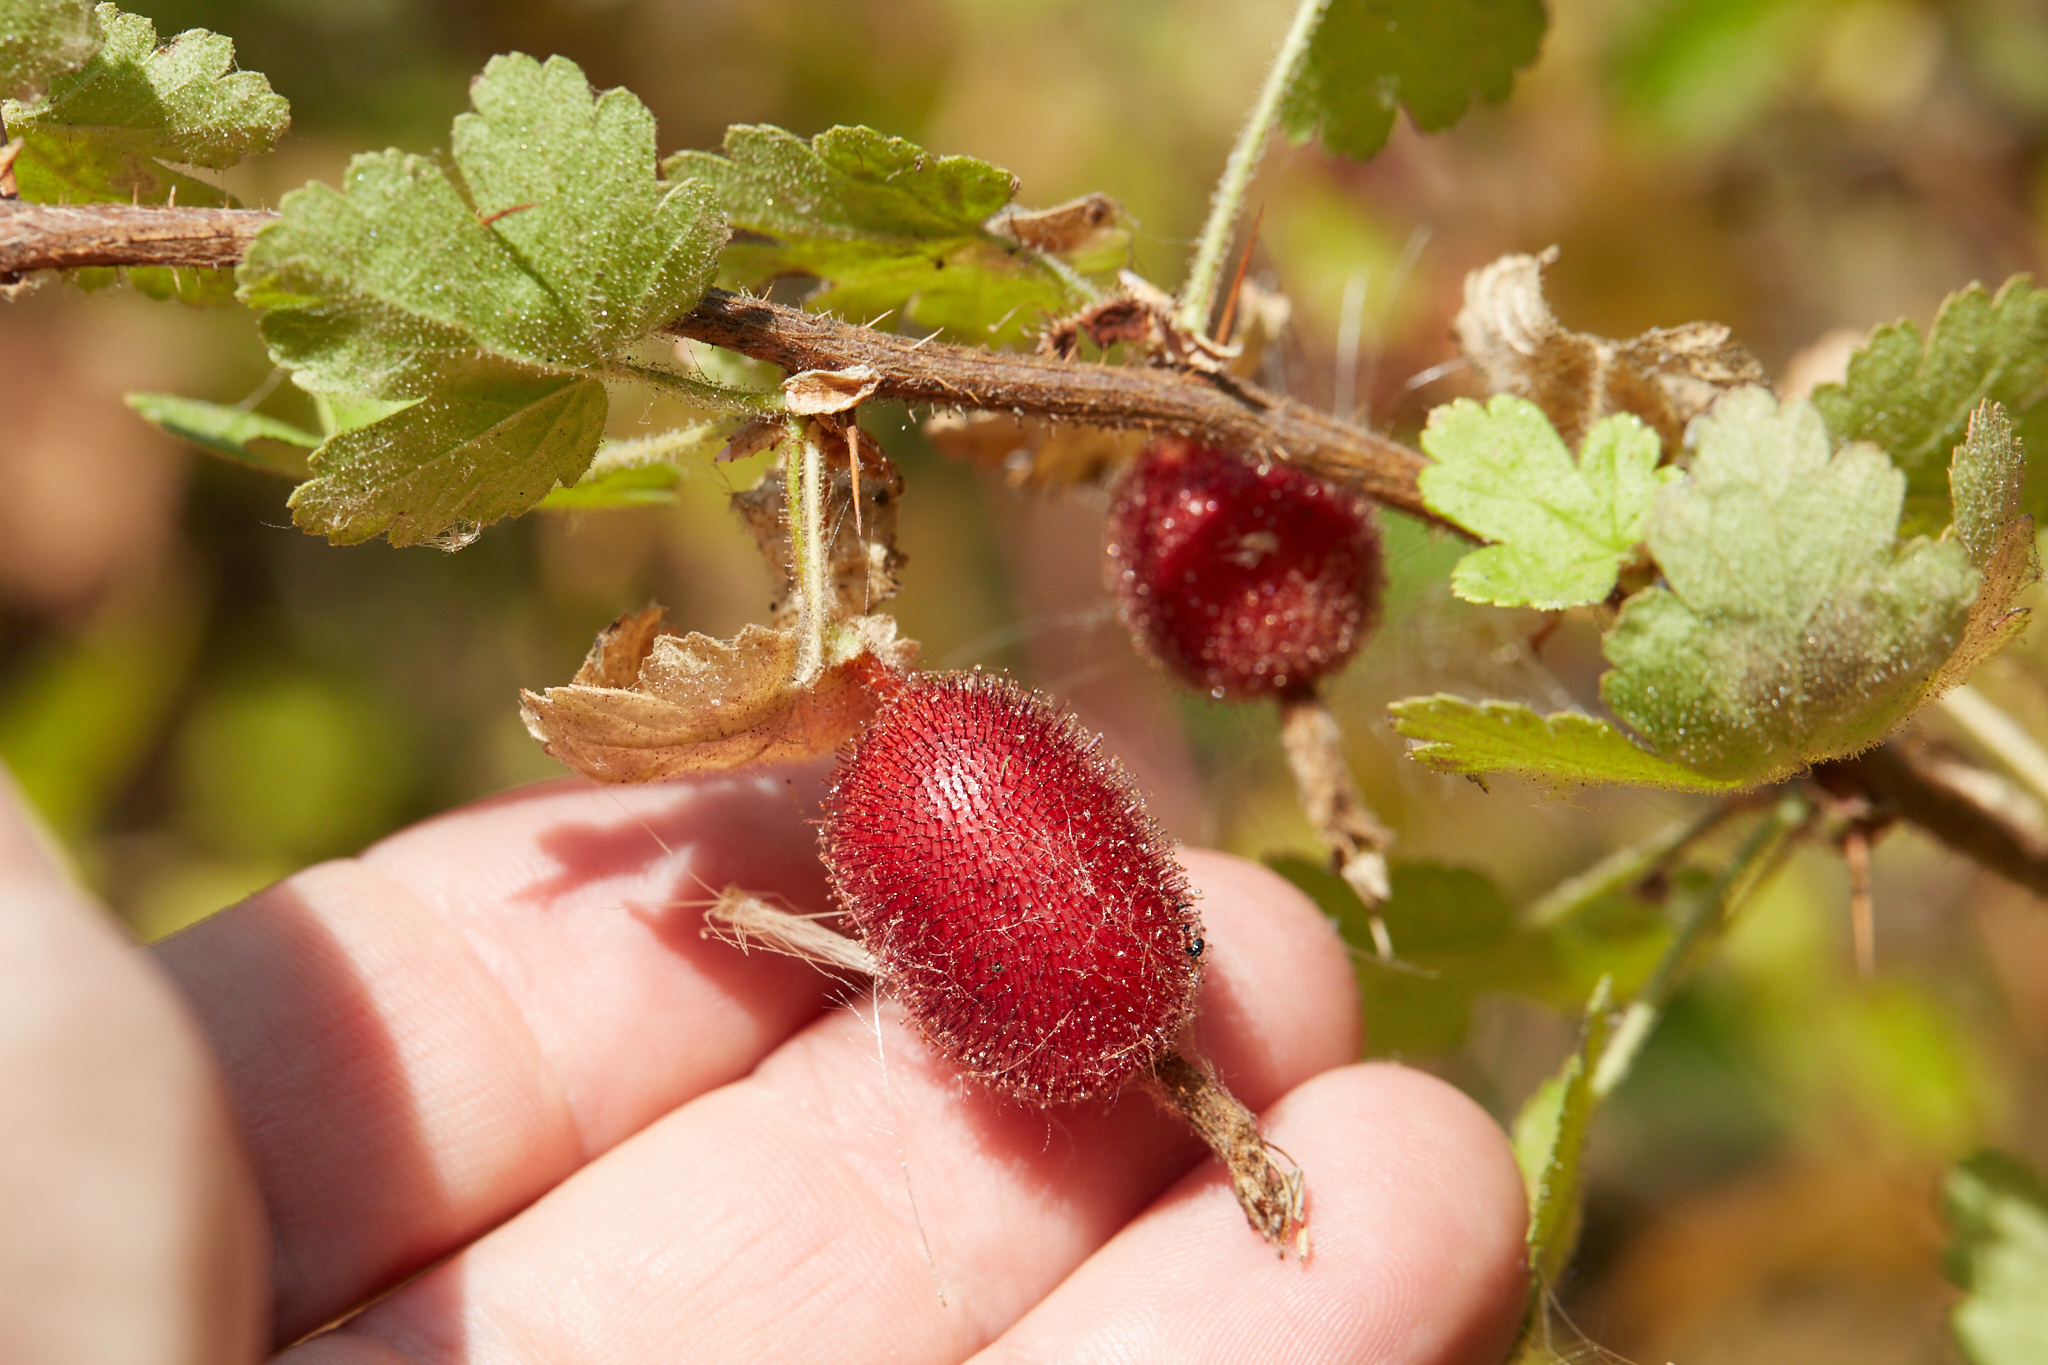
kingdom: Plantae
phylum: Tracheophyta
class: Magnoliopsida
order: Saxifragales
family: Grossulariaceae
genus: Ribes
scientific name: Ribes menziesii
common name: Canyon gooseberry
